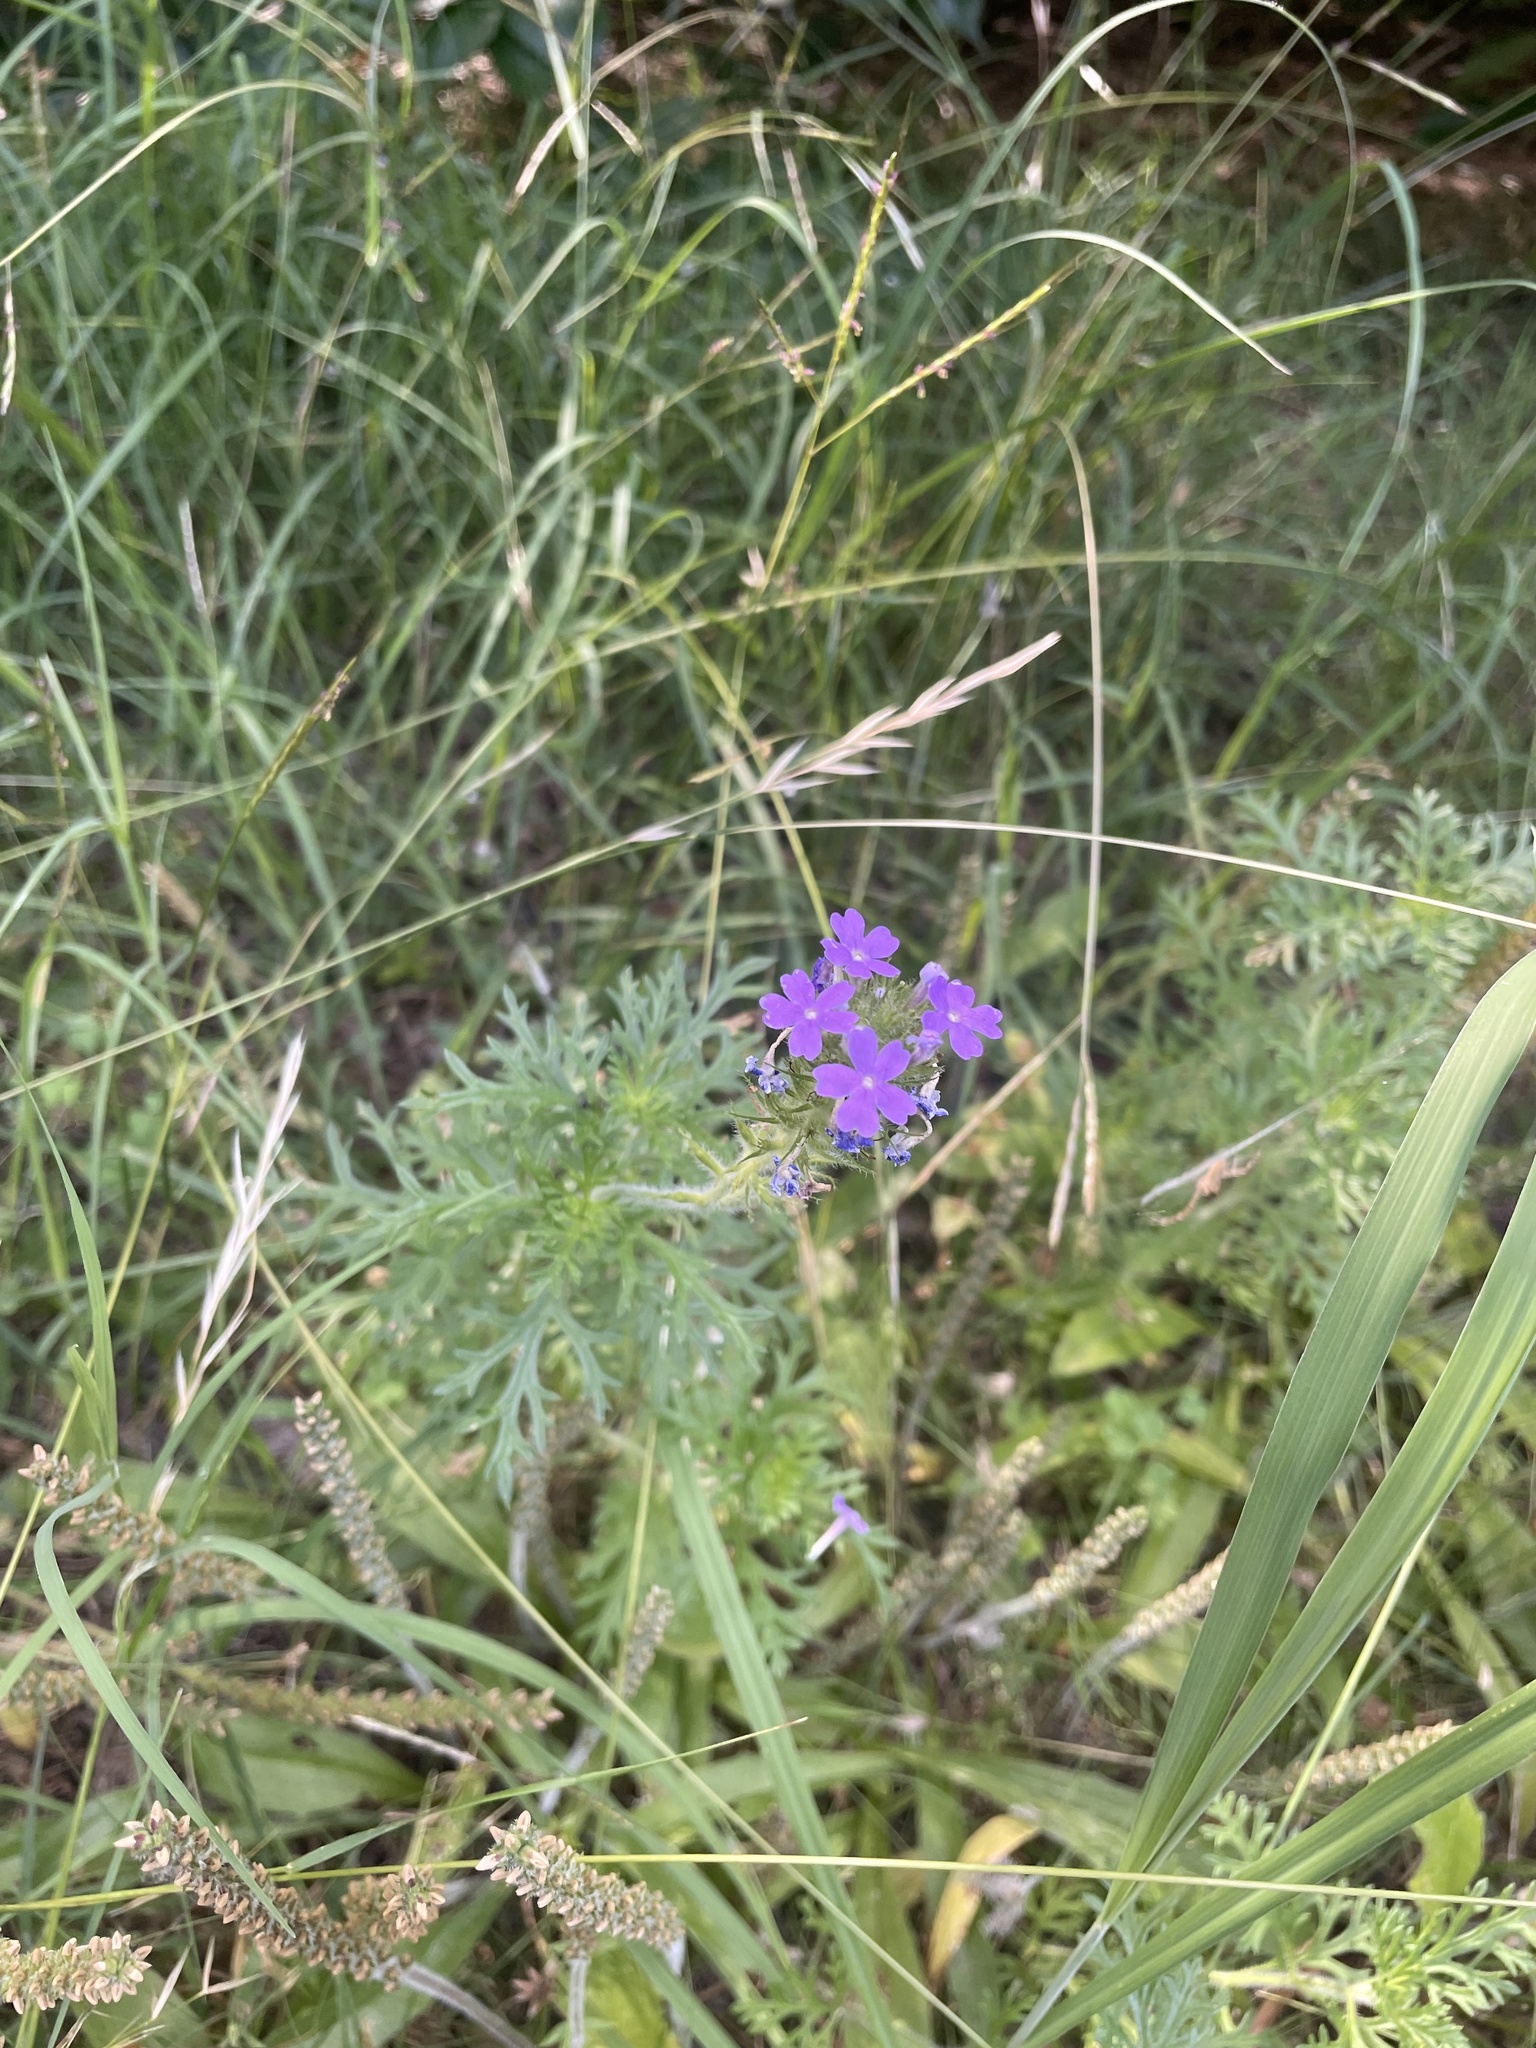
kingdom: Plantae
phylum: Tracheophyta
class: Magnoliopsida
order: Lamiales
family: Verbenaceae
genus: Verbena
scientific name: Verbena bipinnatifida
